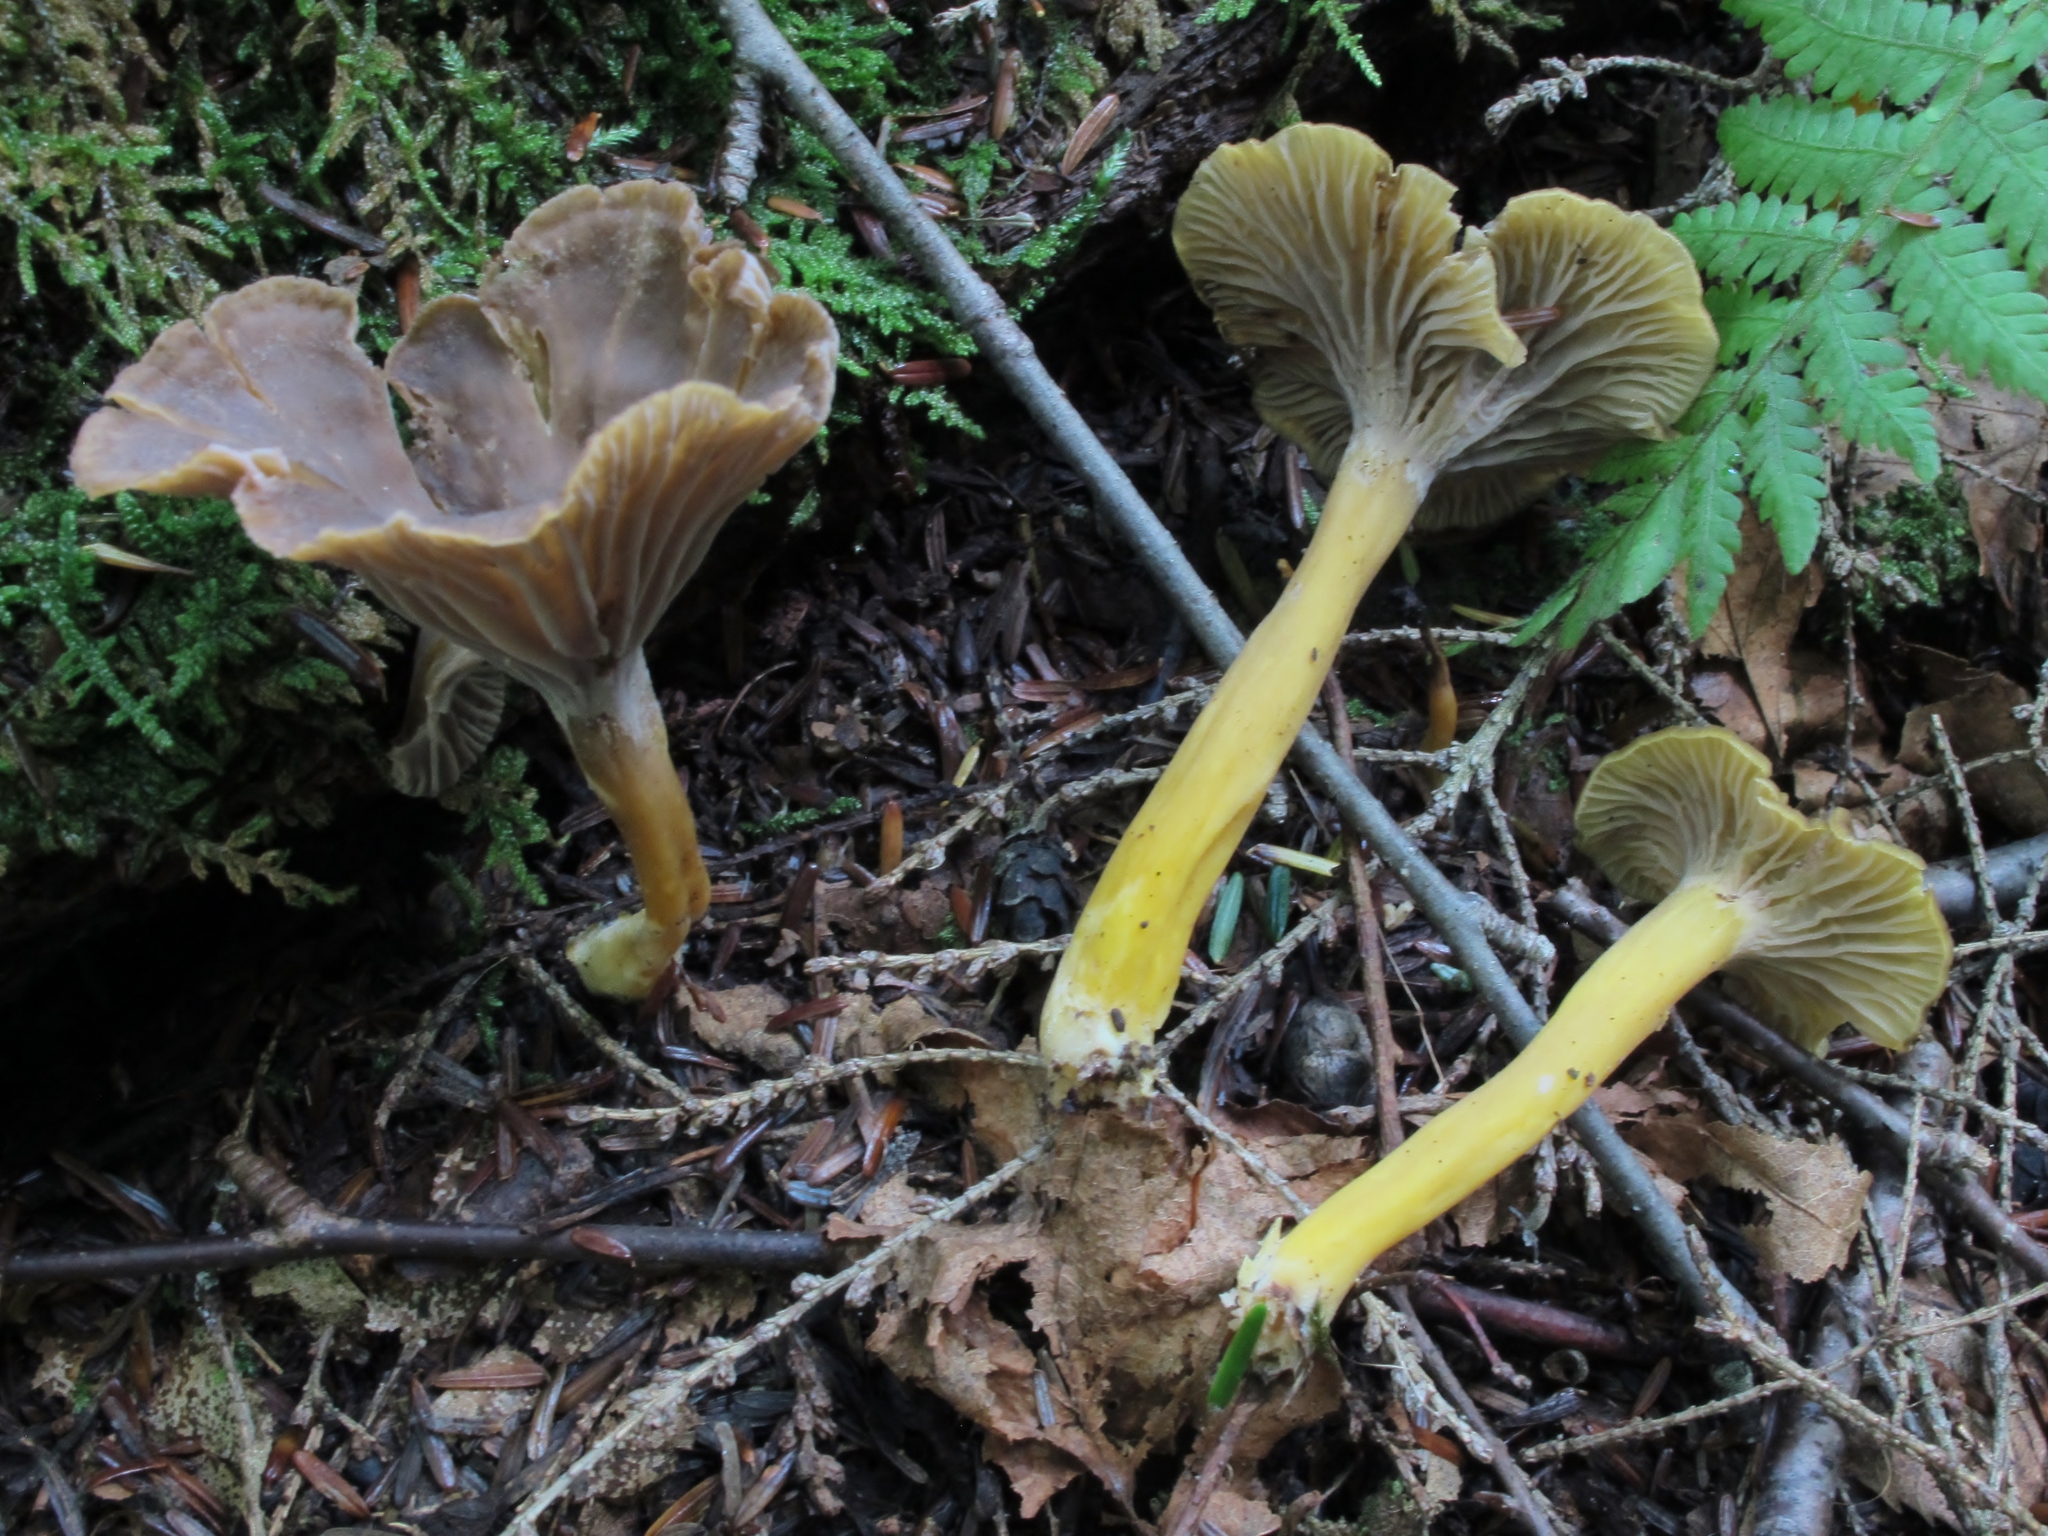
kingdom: Fungi
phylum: Basidiomycota
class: Agaricomycetes
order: Cantharellales
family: Hydnaceae
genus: Craterellus
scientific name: Craterellus tubaeformis
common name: Yellowfoot
